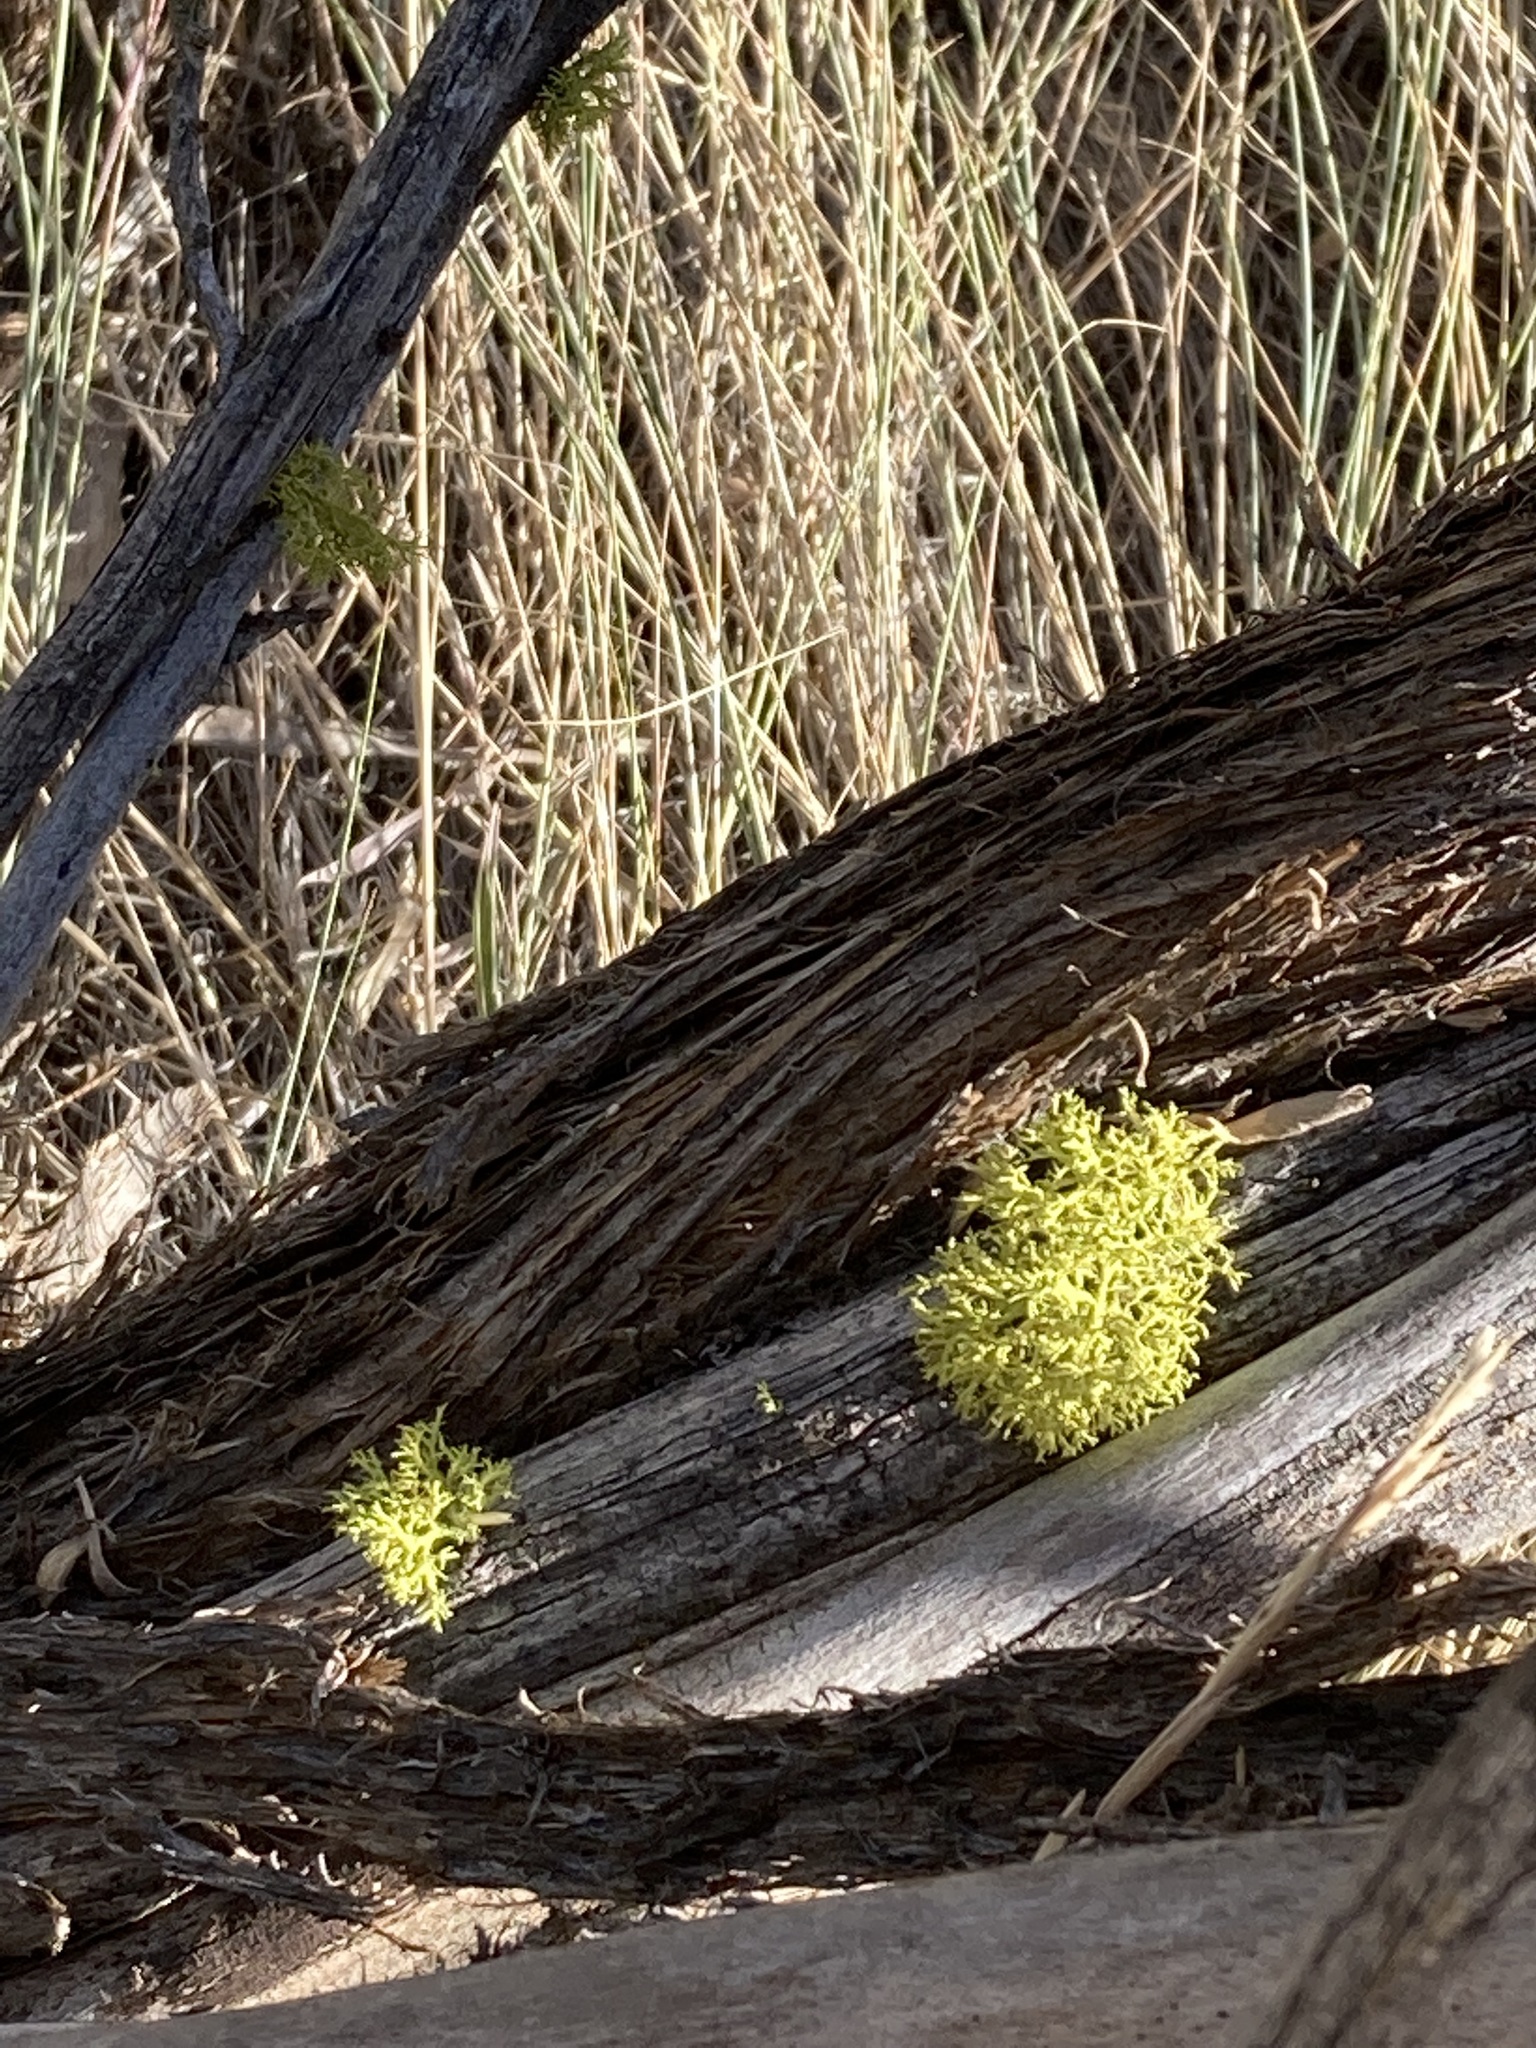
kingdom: Fungi
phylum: Ascomycota
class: Lecanoromycetes
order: Lecanorales
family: Parmeliaceae
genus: Letharia
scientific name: Letharia vulpina
